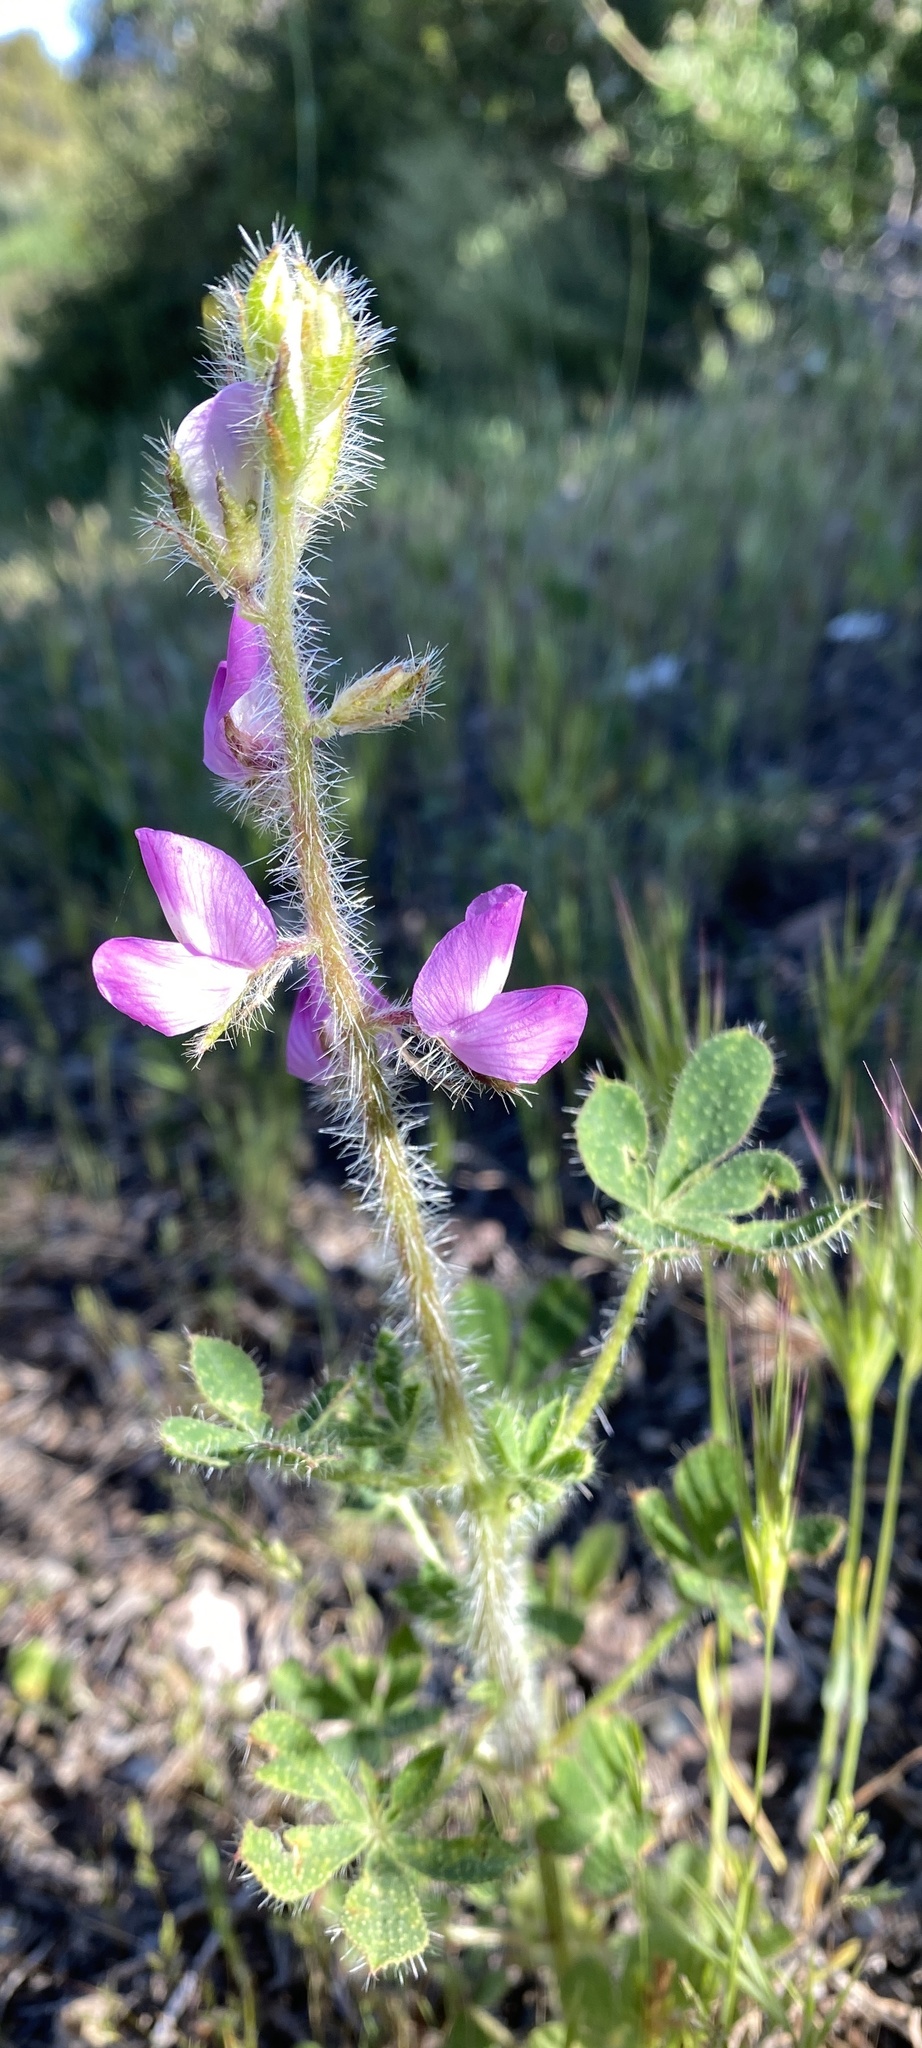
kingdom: Plantae
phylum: Tracheophyta
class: Magnoliopsida
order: Fabales
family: Fabaceae
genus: Lupinus
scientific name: Lupinus hirsutissimus
